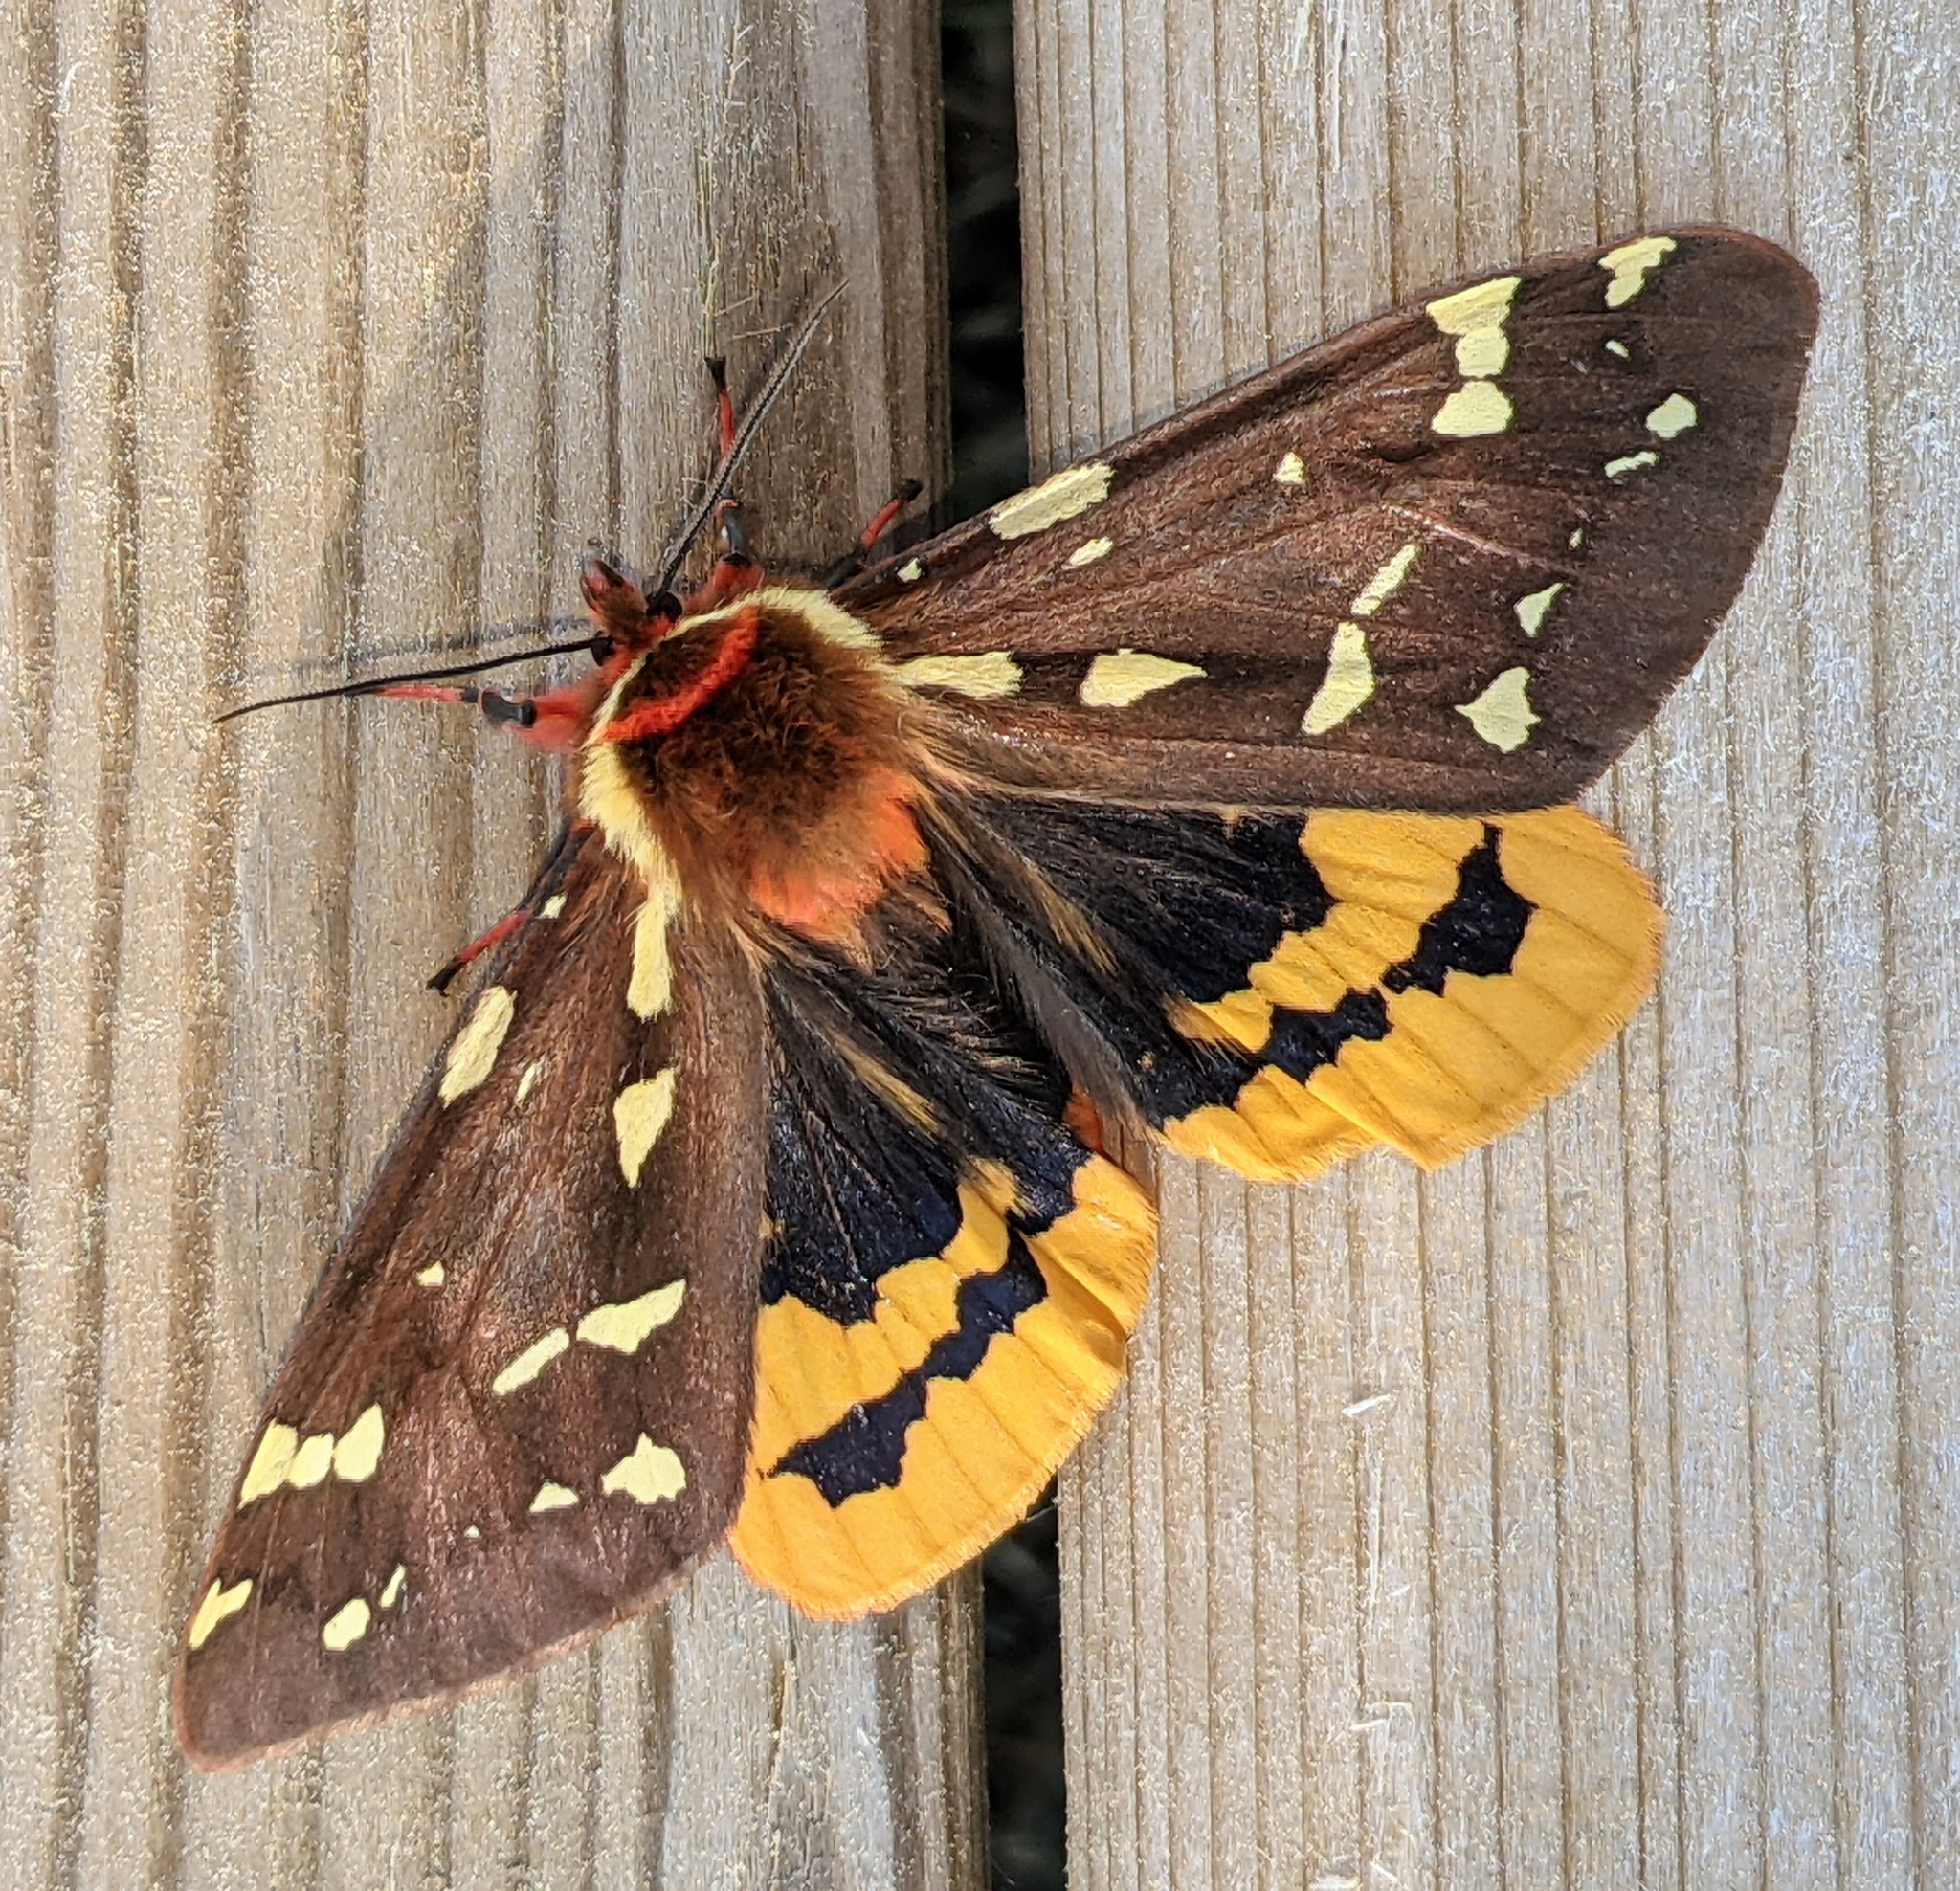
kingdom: Animalia
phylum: Arthropoda
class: Insecta
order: Lepidoptera
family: Erebidae
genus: Arctia
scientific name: Arctia parthenos
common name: St. lawrence tiger moth
